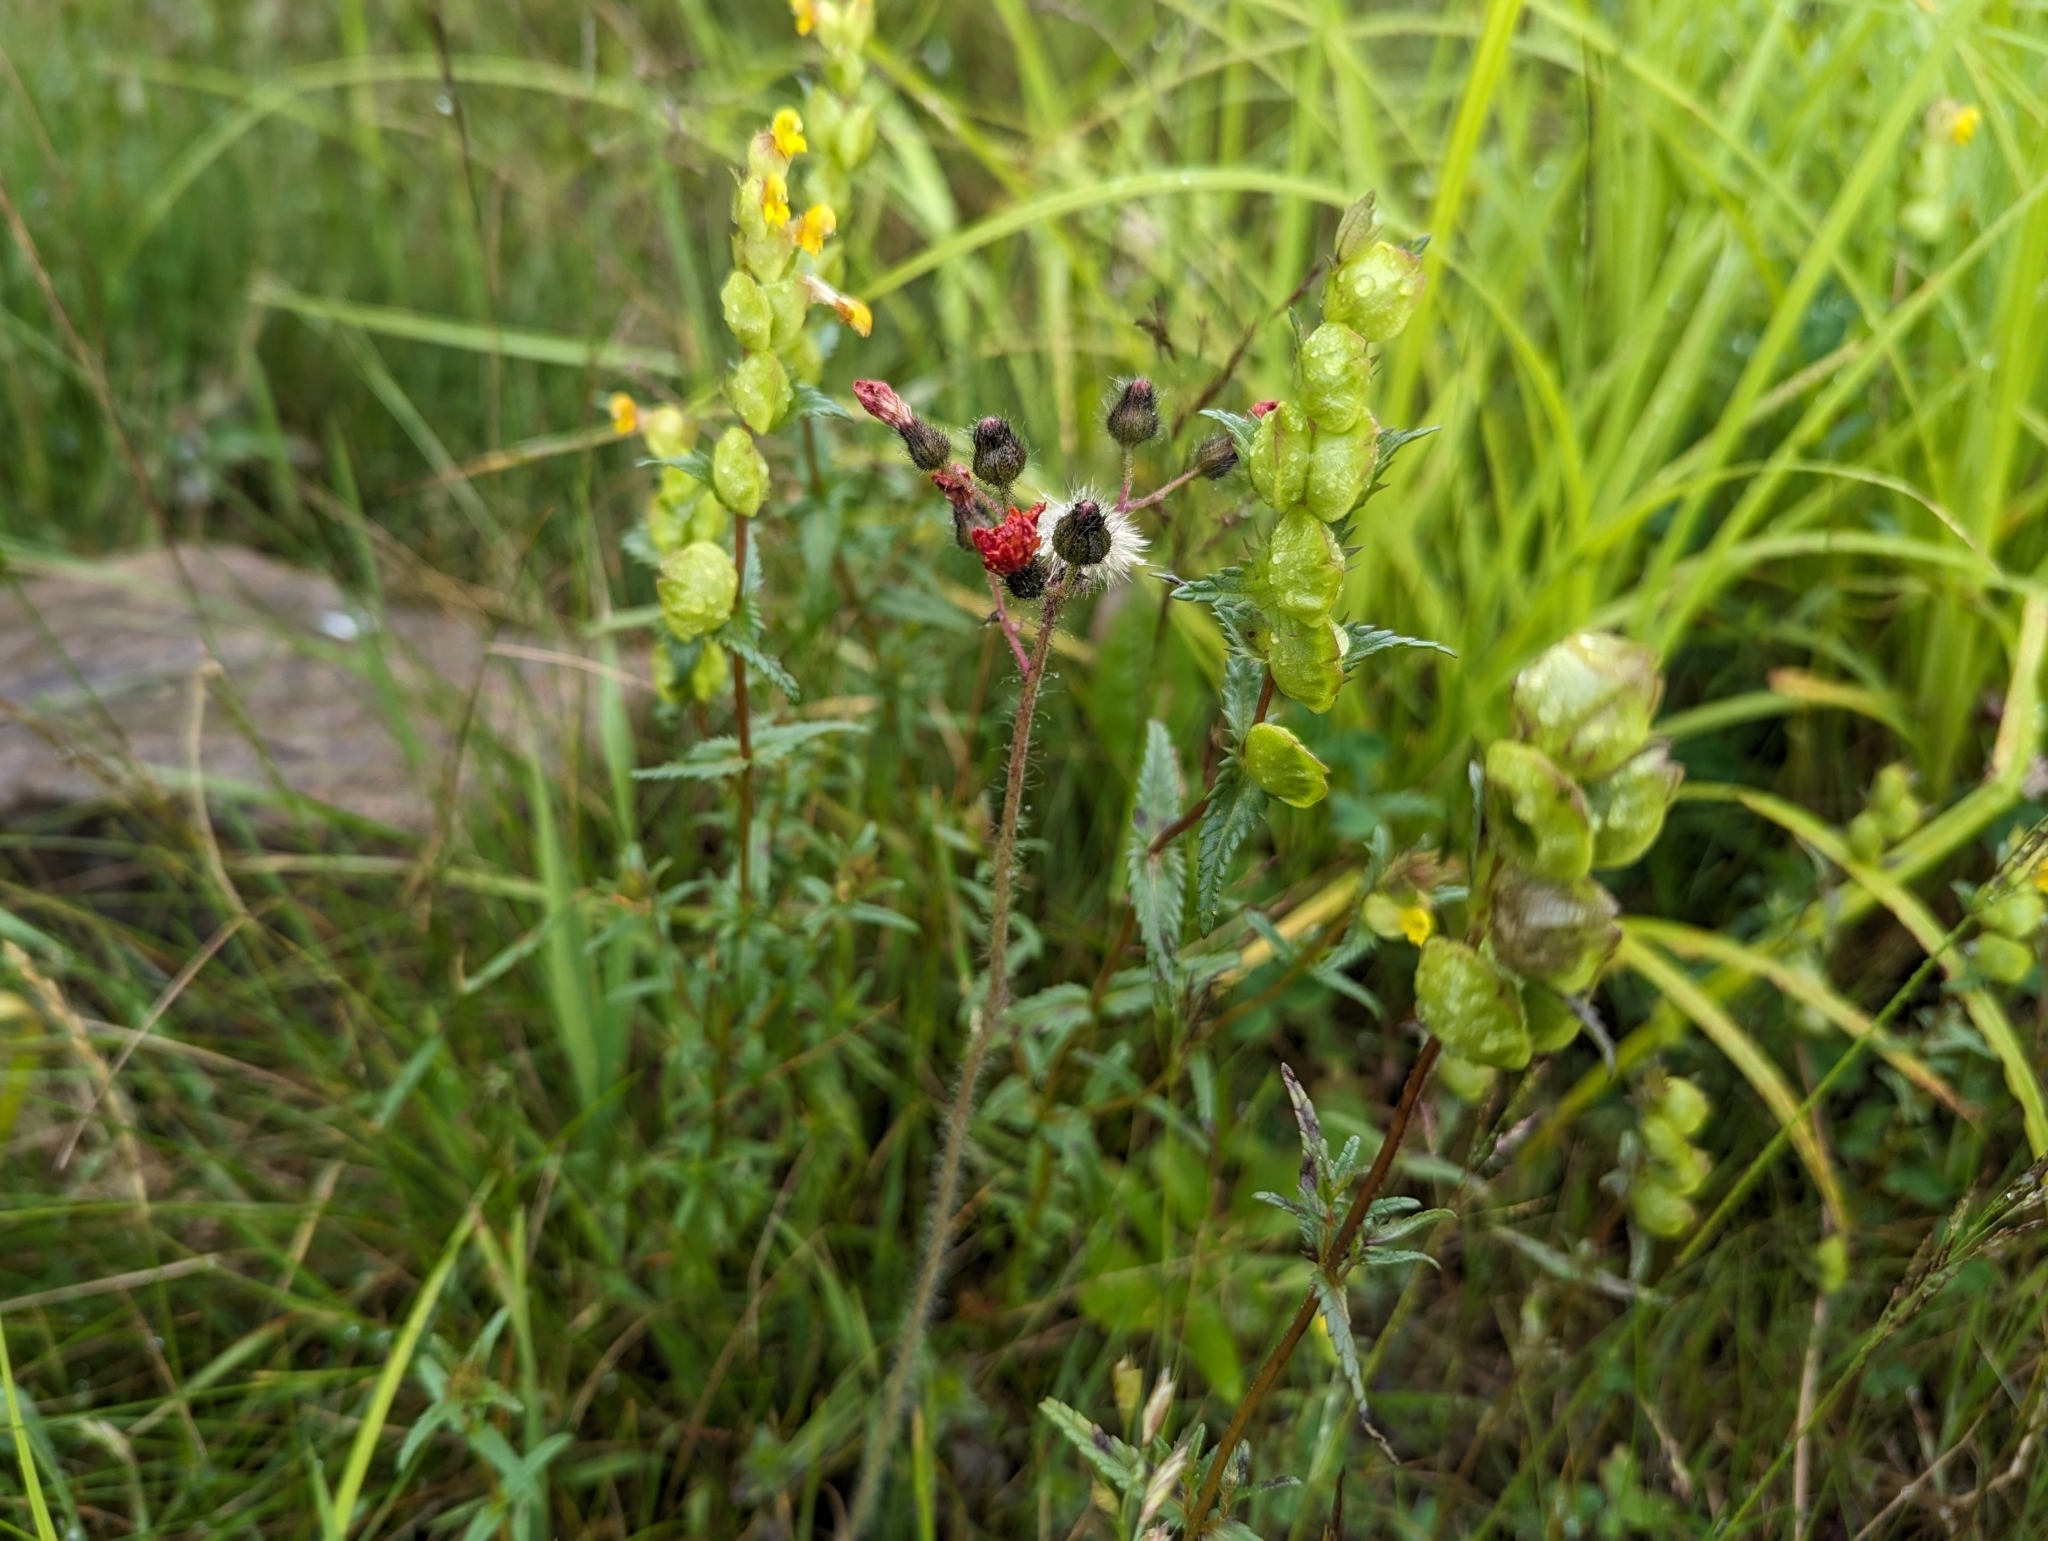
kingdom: Plantae
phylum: Tracheophyta
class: Magnoliopsida
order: Asterales
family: Asteraceae
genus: Pilosella
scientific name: Pilosella aurantiaca
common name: Fox-and-cubs
